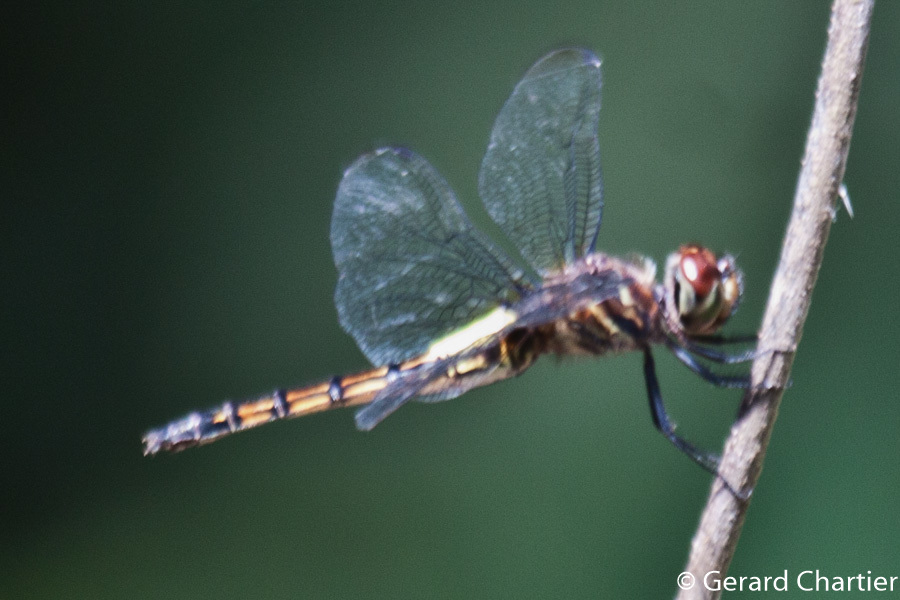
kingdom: Animalia
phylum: Arthropoda
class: Insecta
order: Odonata
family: Libellulidae
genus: Pseudothemis
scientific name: Pseudothemis jorina
